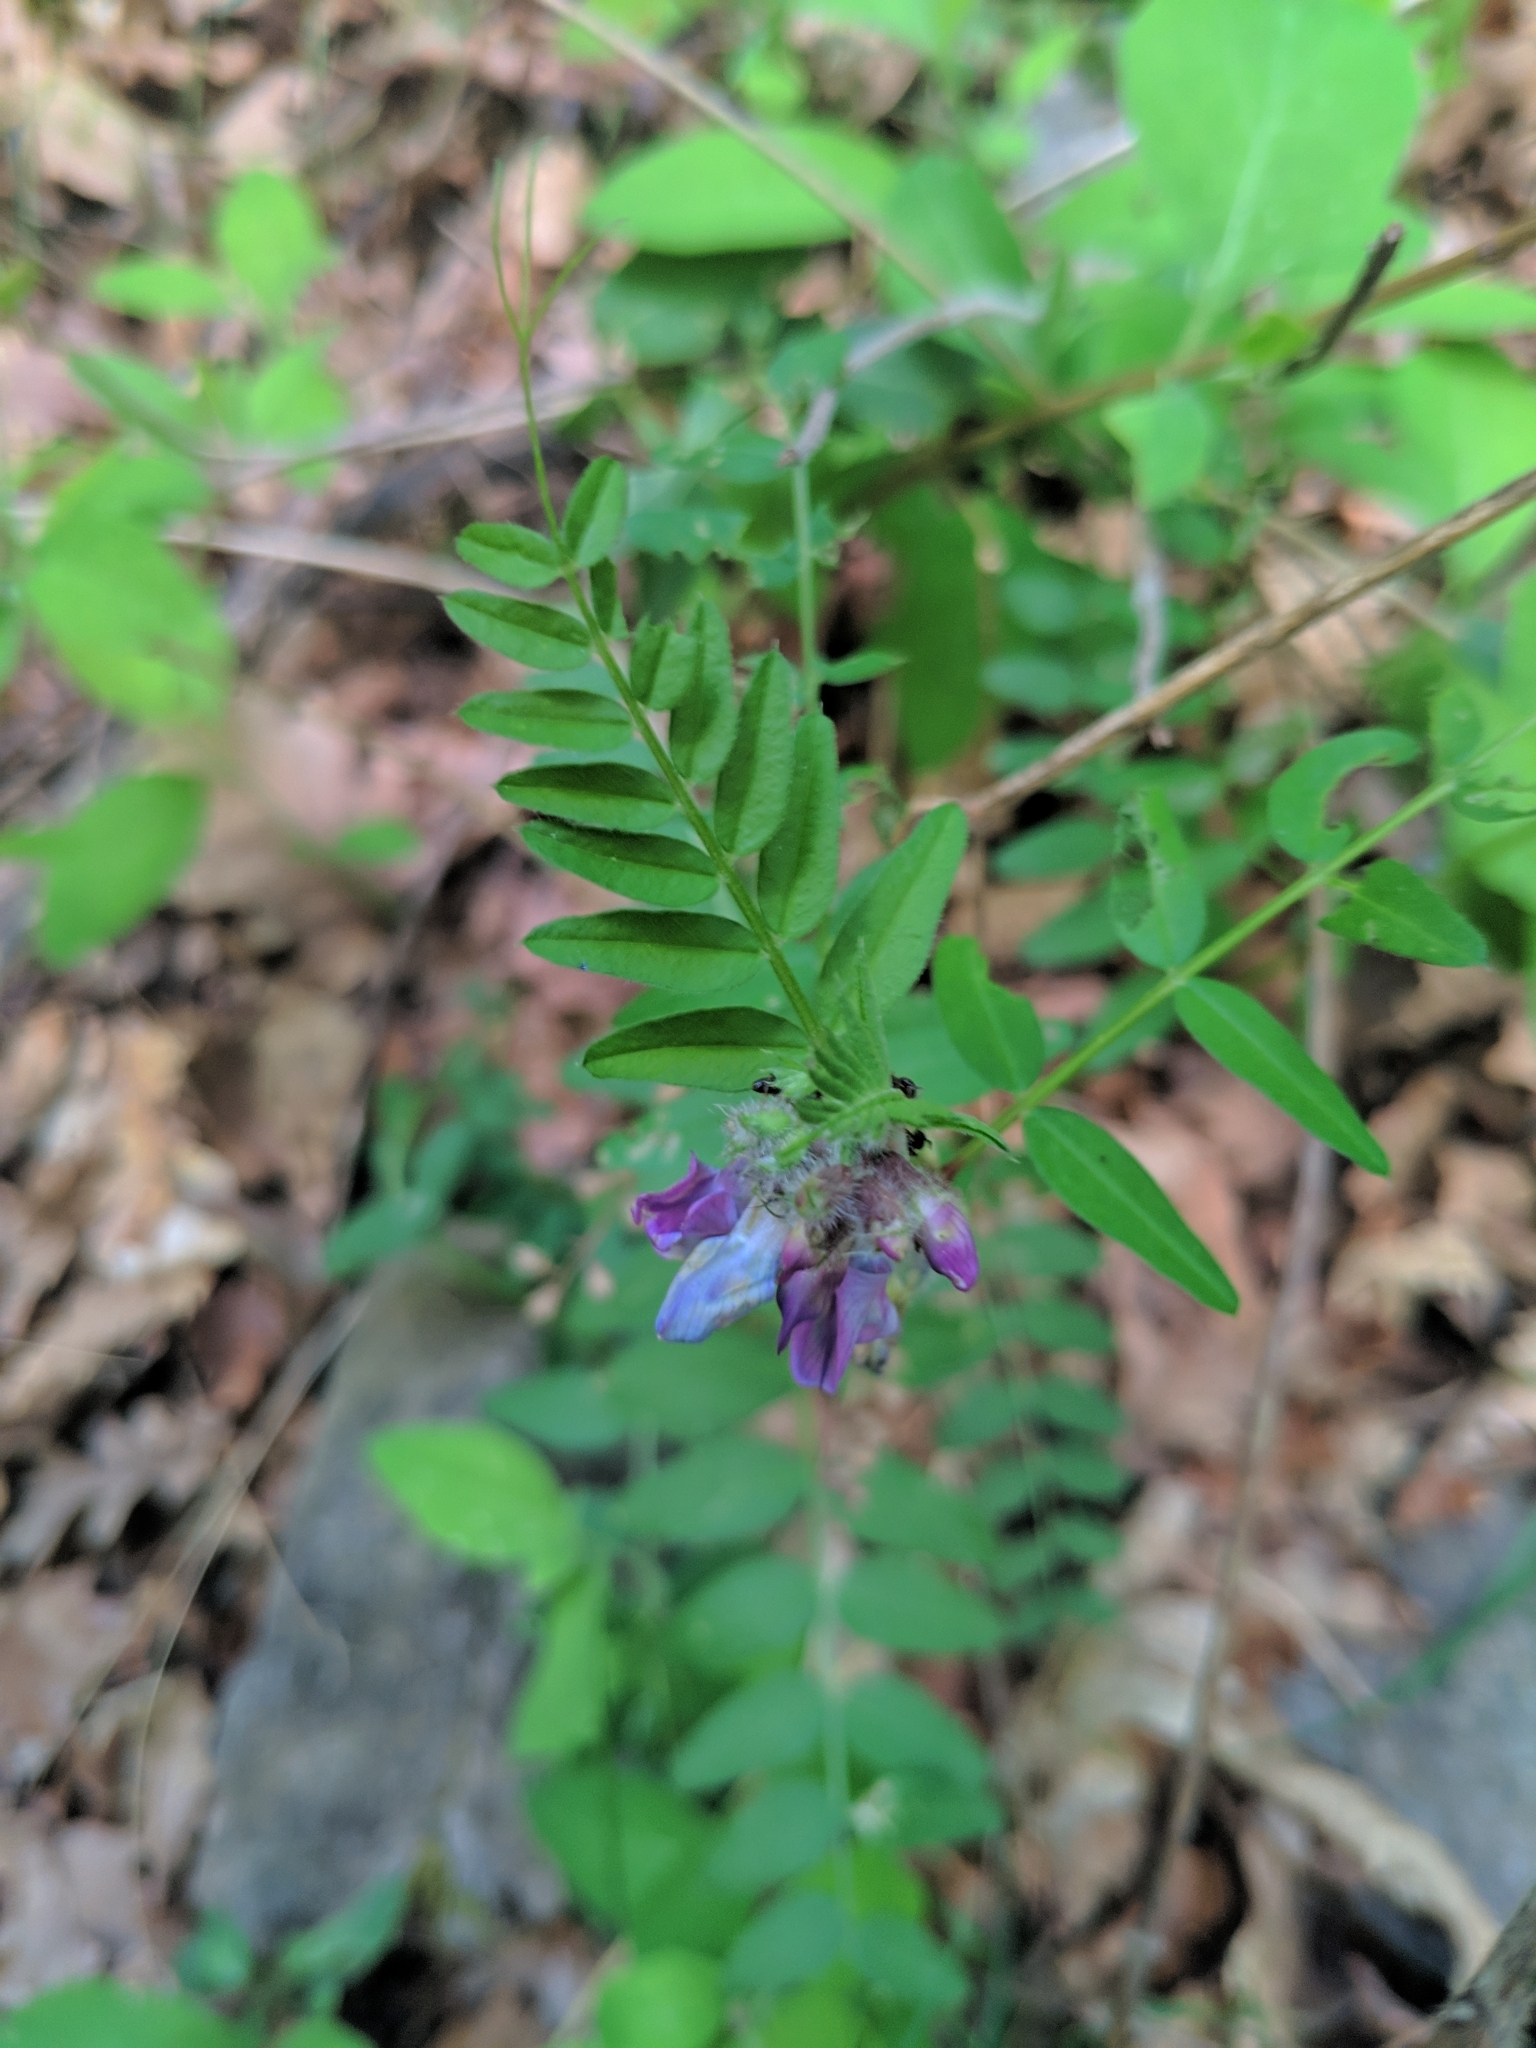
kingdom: Plantae
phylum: Tracheophyta
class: Magnoliopsida
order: Fabales
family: Fabaceae
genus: Vicia
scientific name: Vicia sepium
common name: Bush vetch
